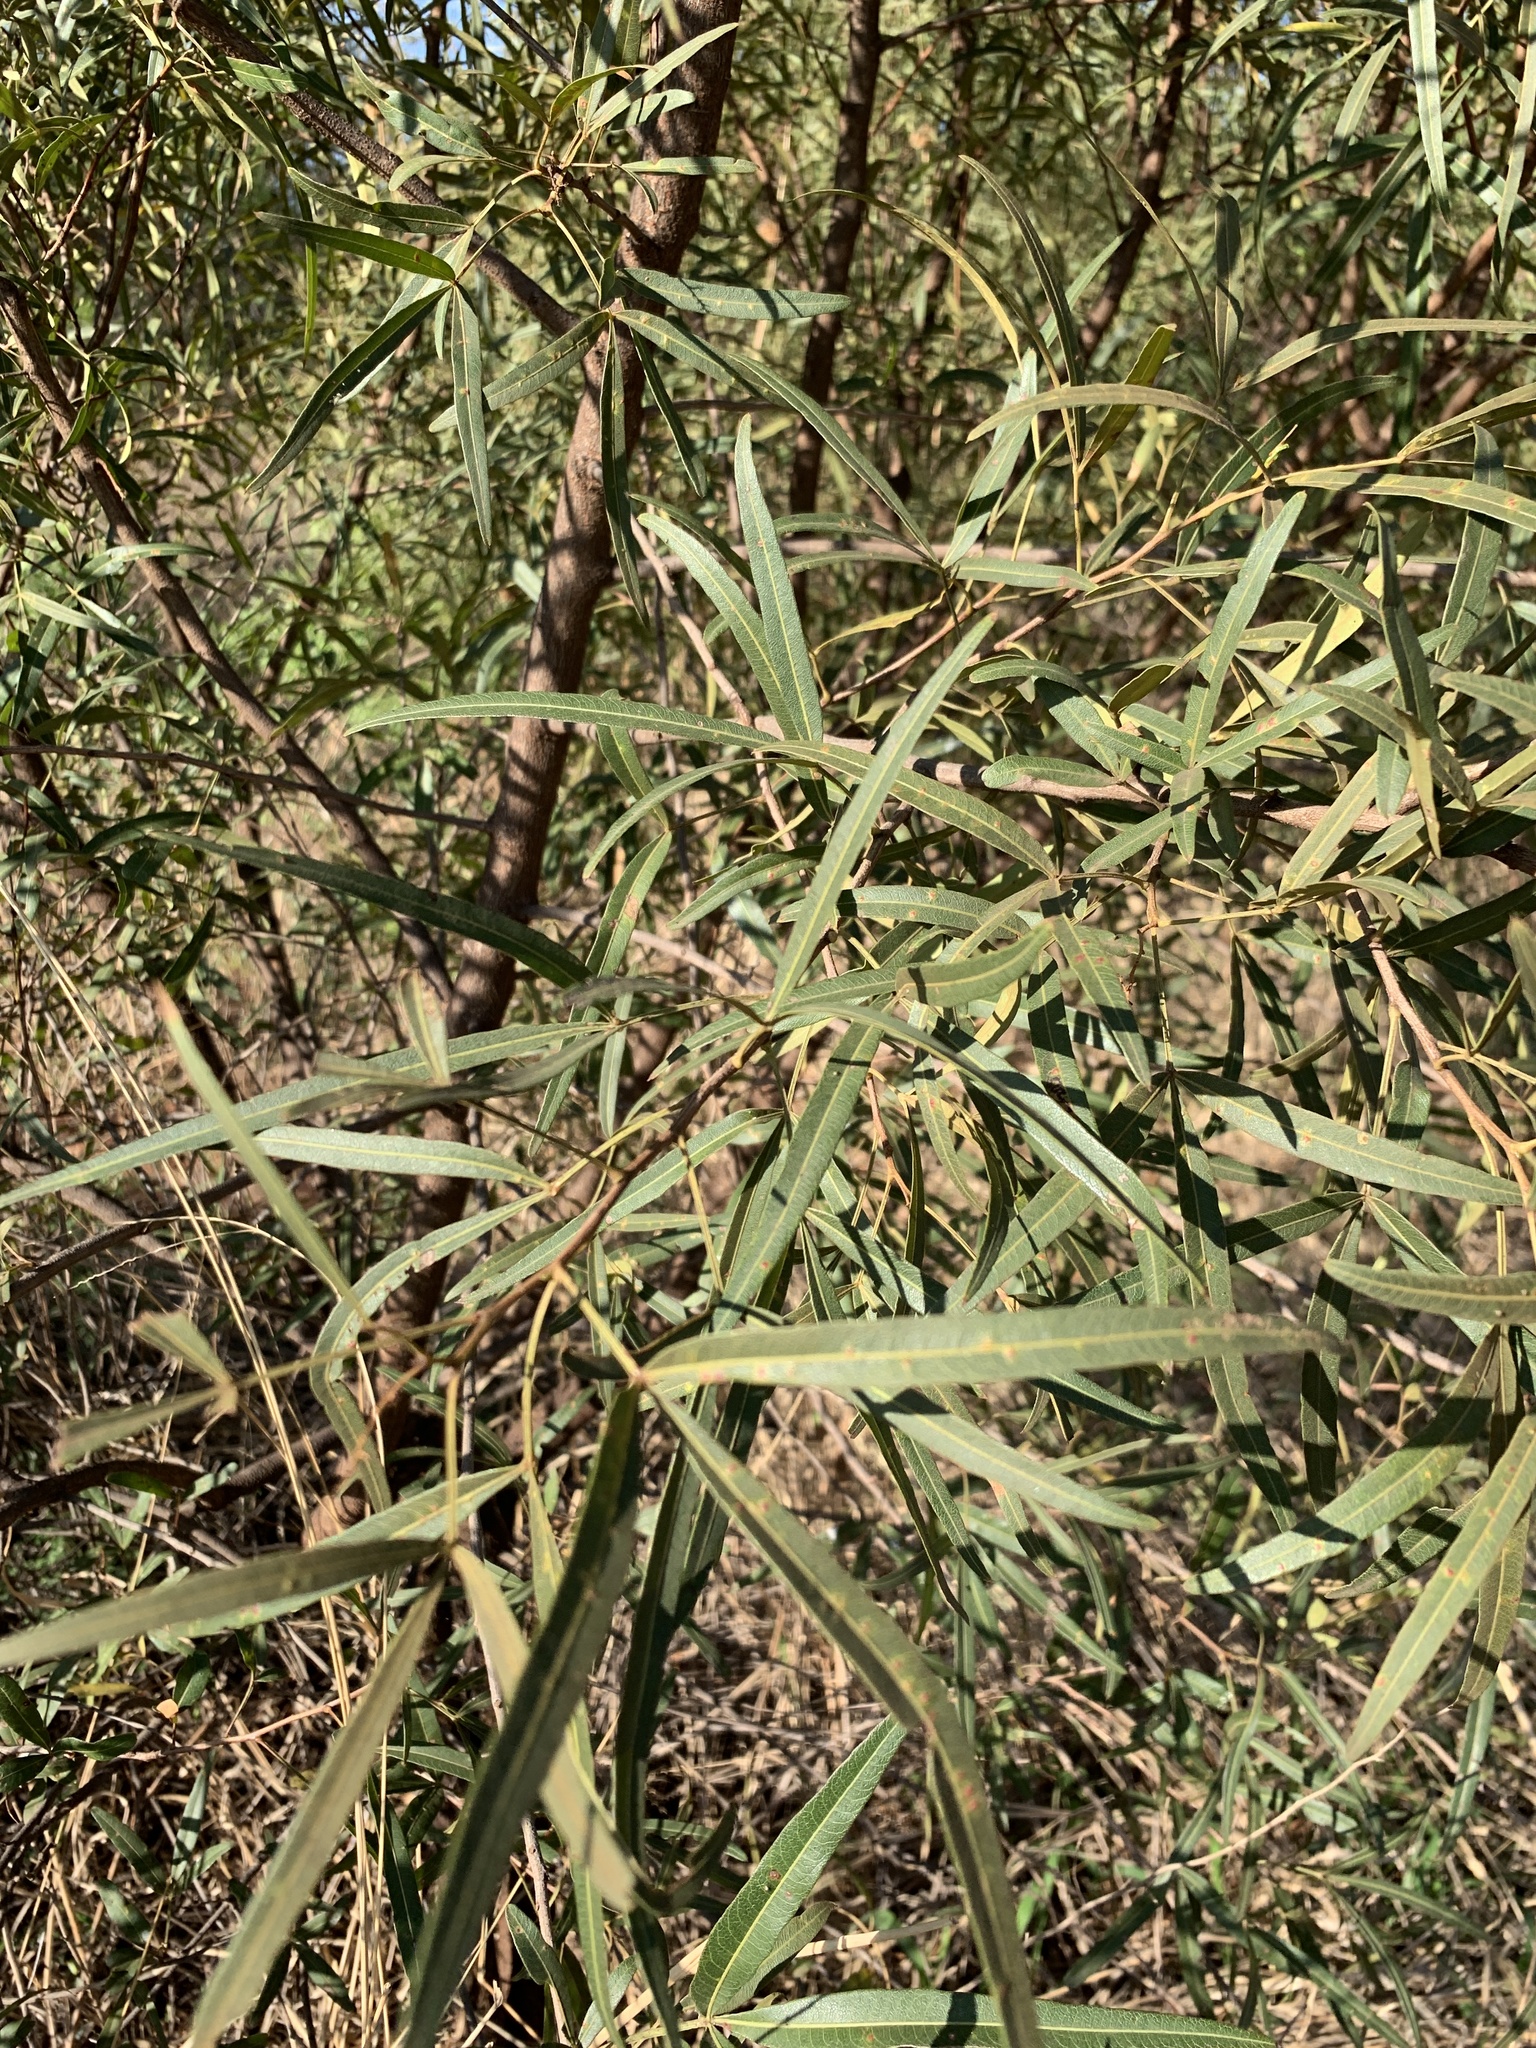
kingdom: Plantae
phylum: Tracheophyta
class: Magnoliopsida
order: Sapindales
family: Anacardiaceae
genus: Searsia
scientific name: Searsia lancea
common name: Cashew
